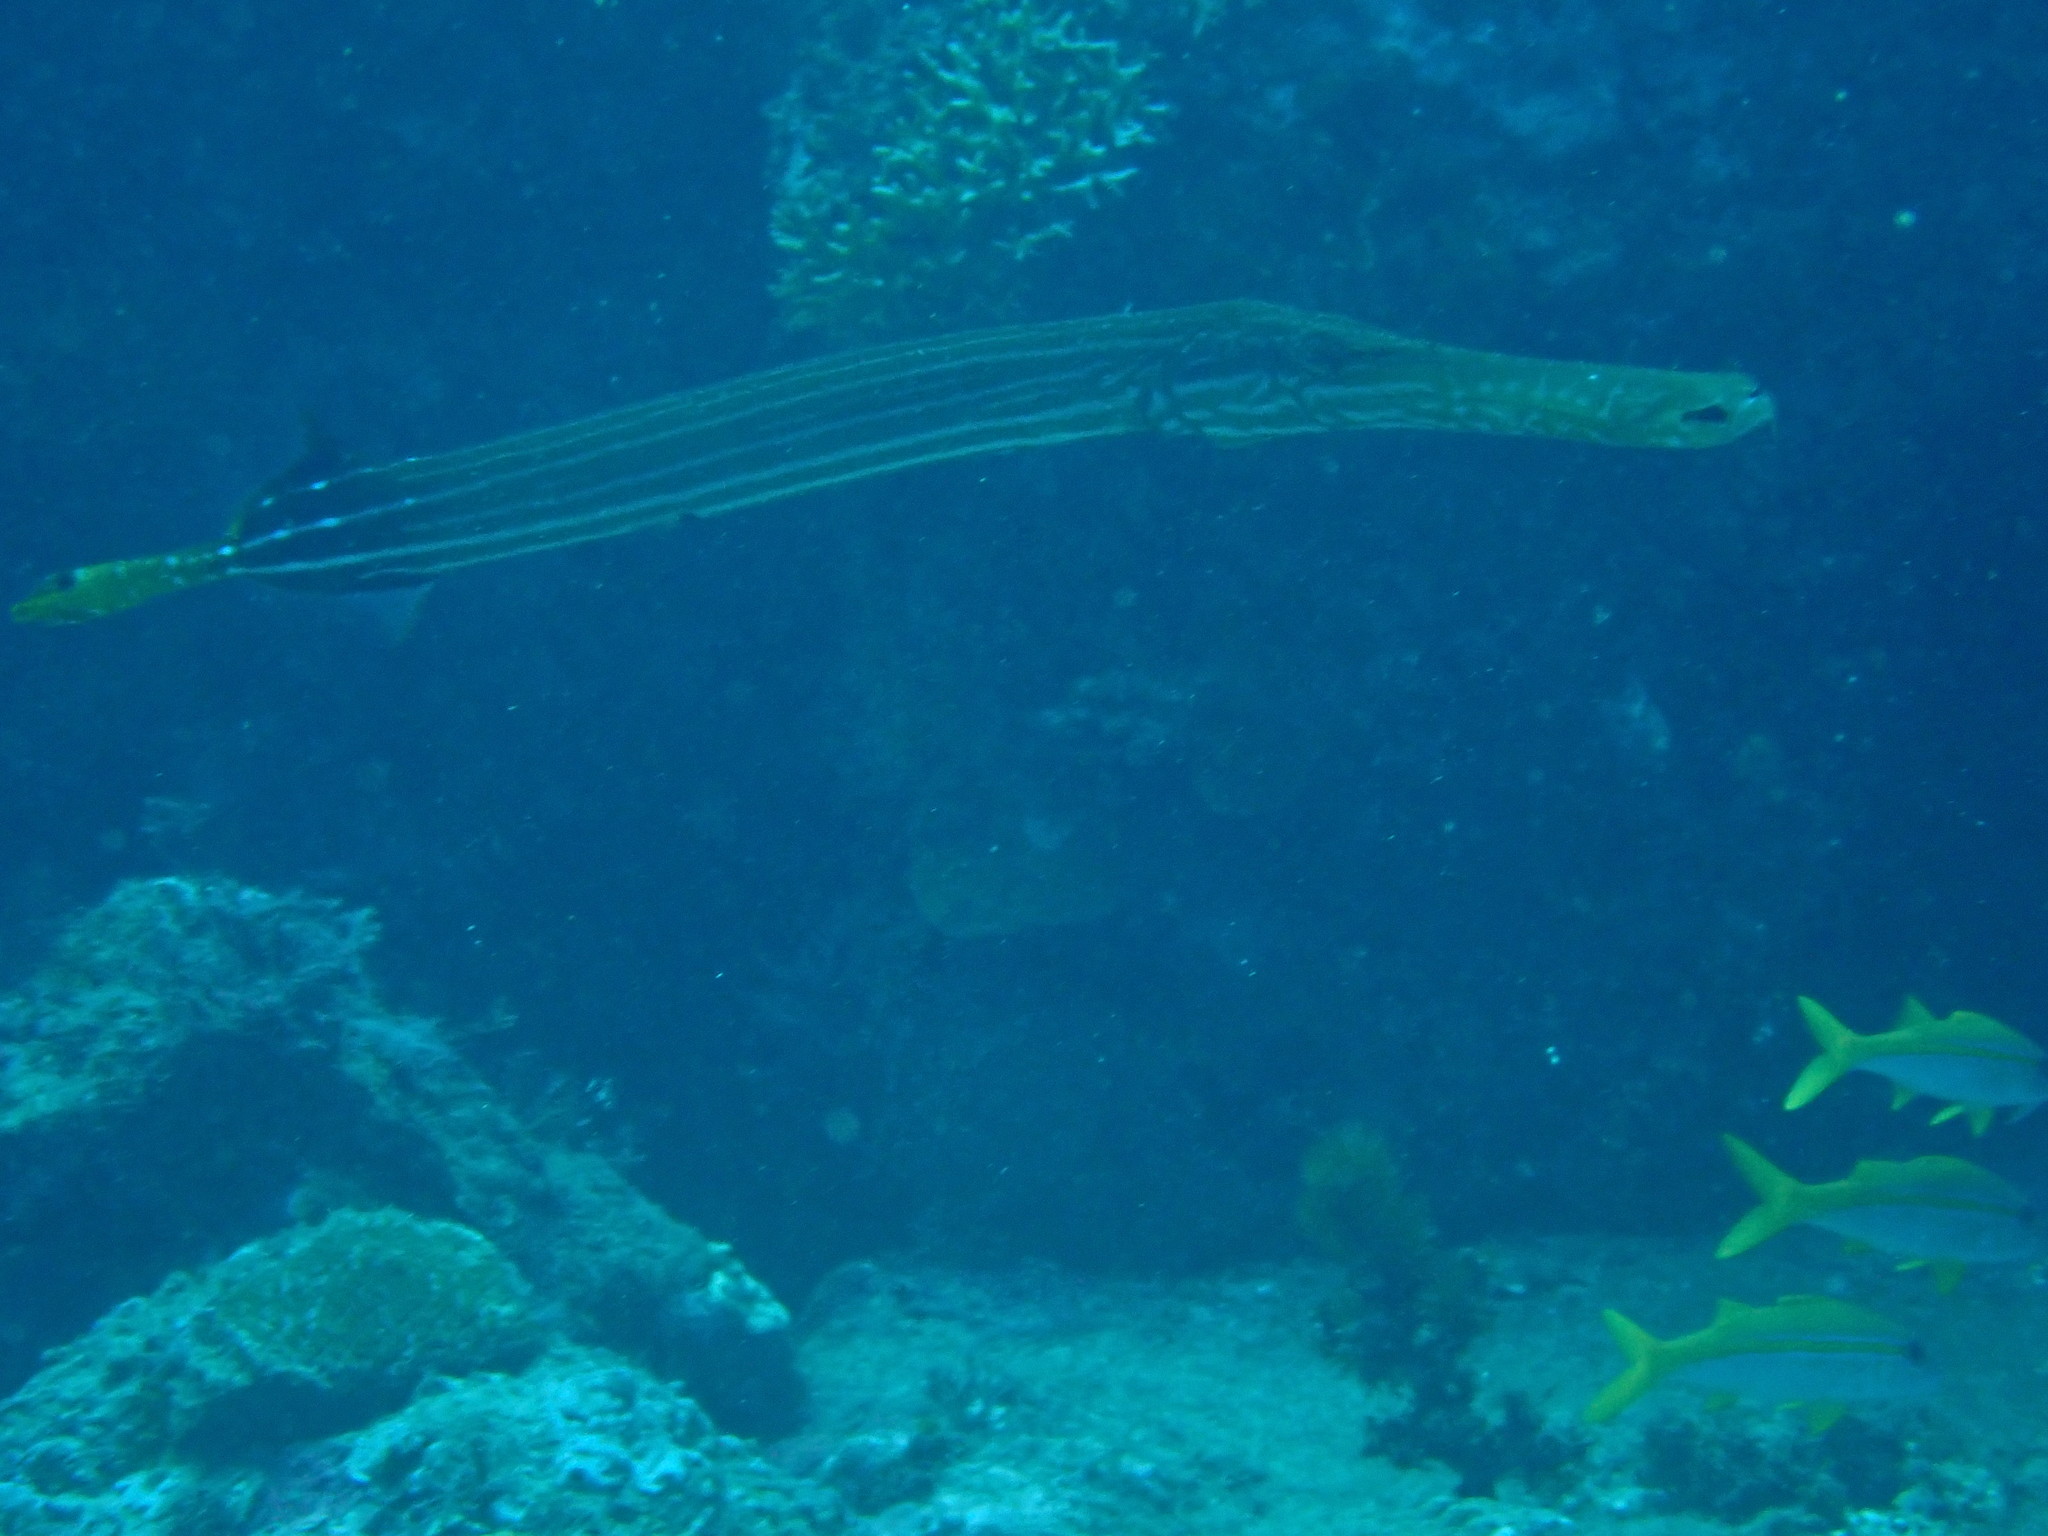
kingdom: Animalia
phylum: Chordata
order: Syngnathiformes
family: Aulostomidae
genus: Aulostomus
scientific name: Aulostomus chinensis
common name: Chinese trumpetfish
